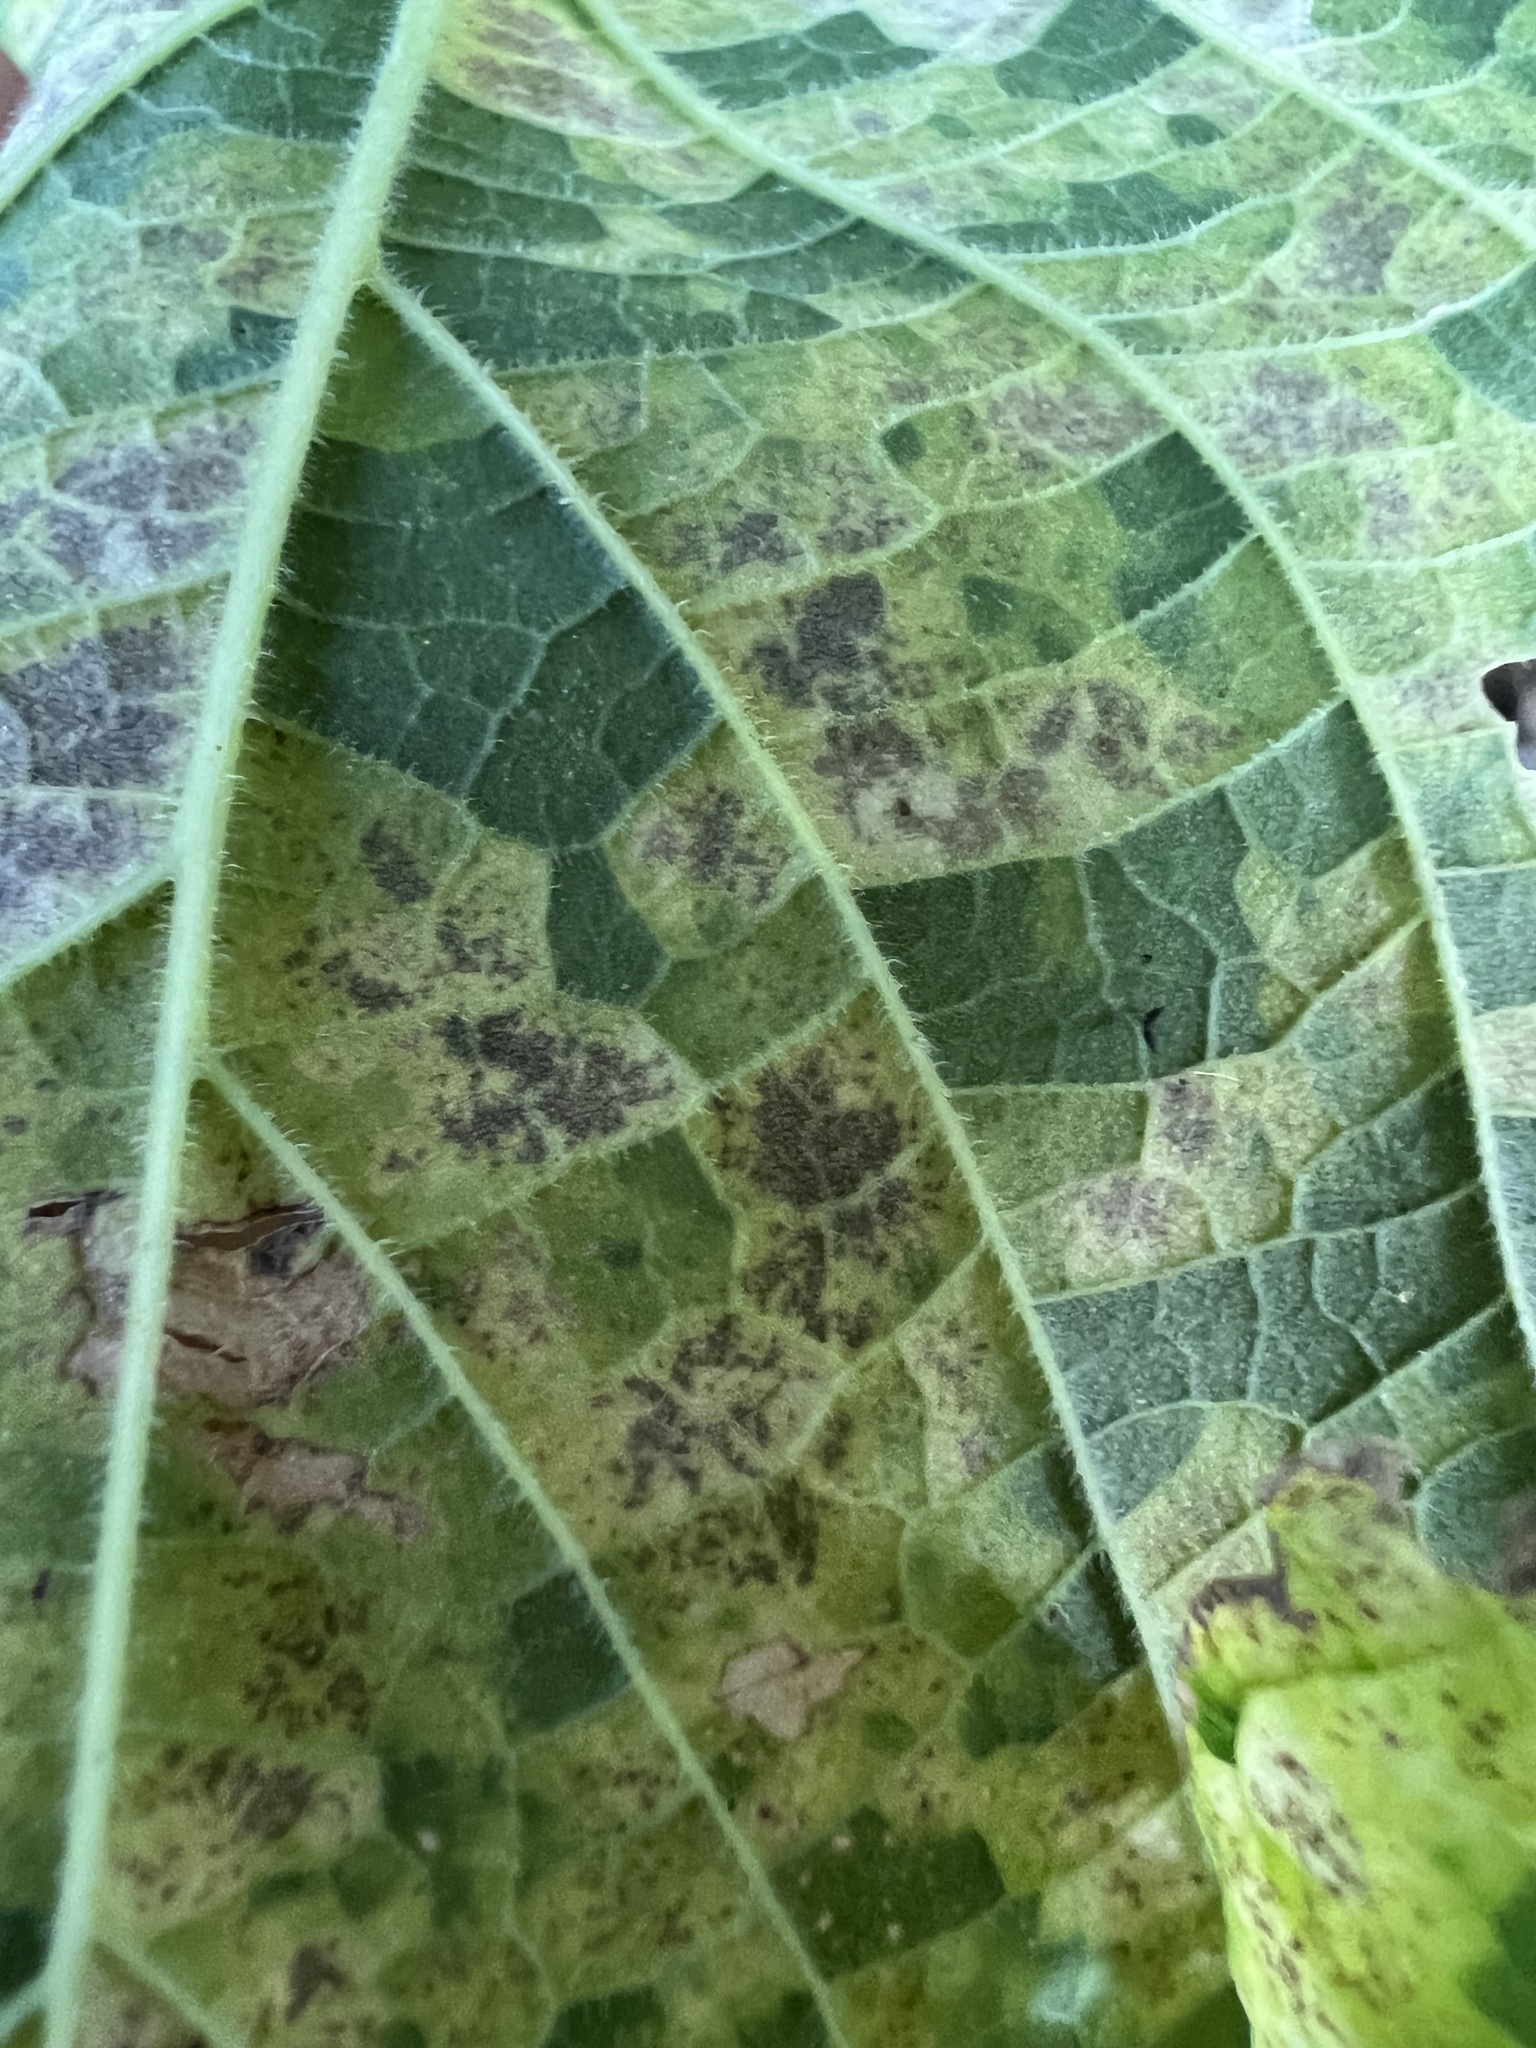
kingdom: Viruses
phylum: Kitrinoviricota
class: Alsuviricetes
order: Martellivirales
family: Closteroviridae
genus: Ampelovirus
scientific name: Ampelovirus
